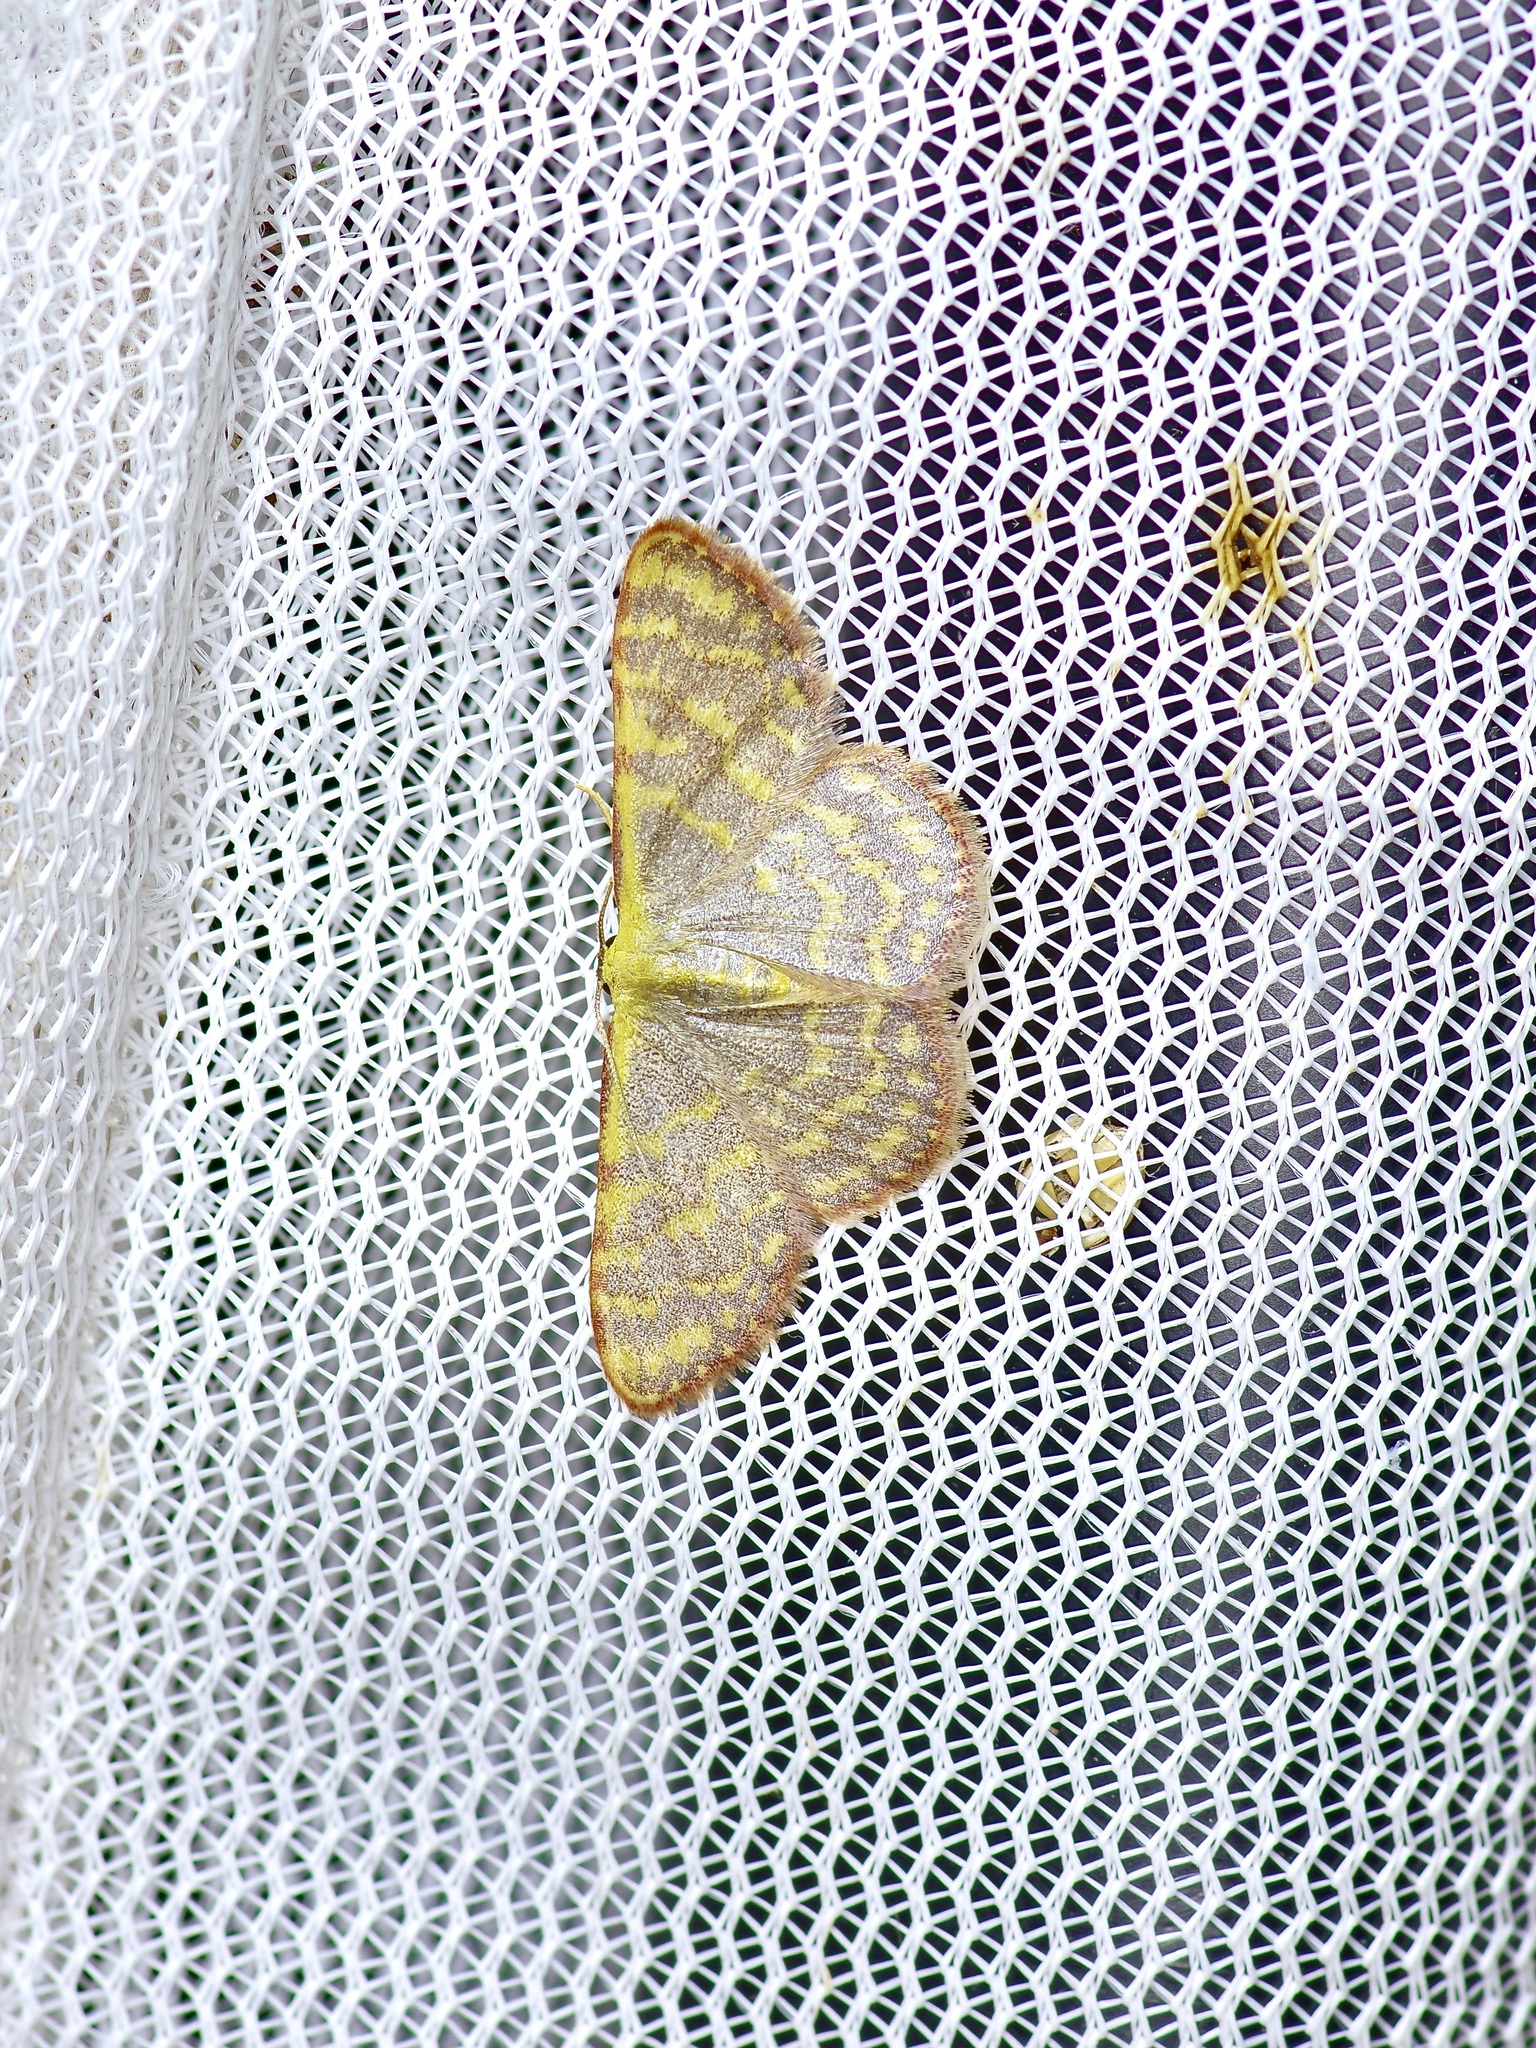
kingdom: Animalia
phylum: Arthropoda
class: Insecta
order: Lepidoptera
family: Geometridae
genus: Leptostales
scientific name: Leptostales pannaria
